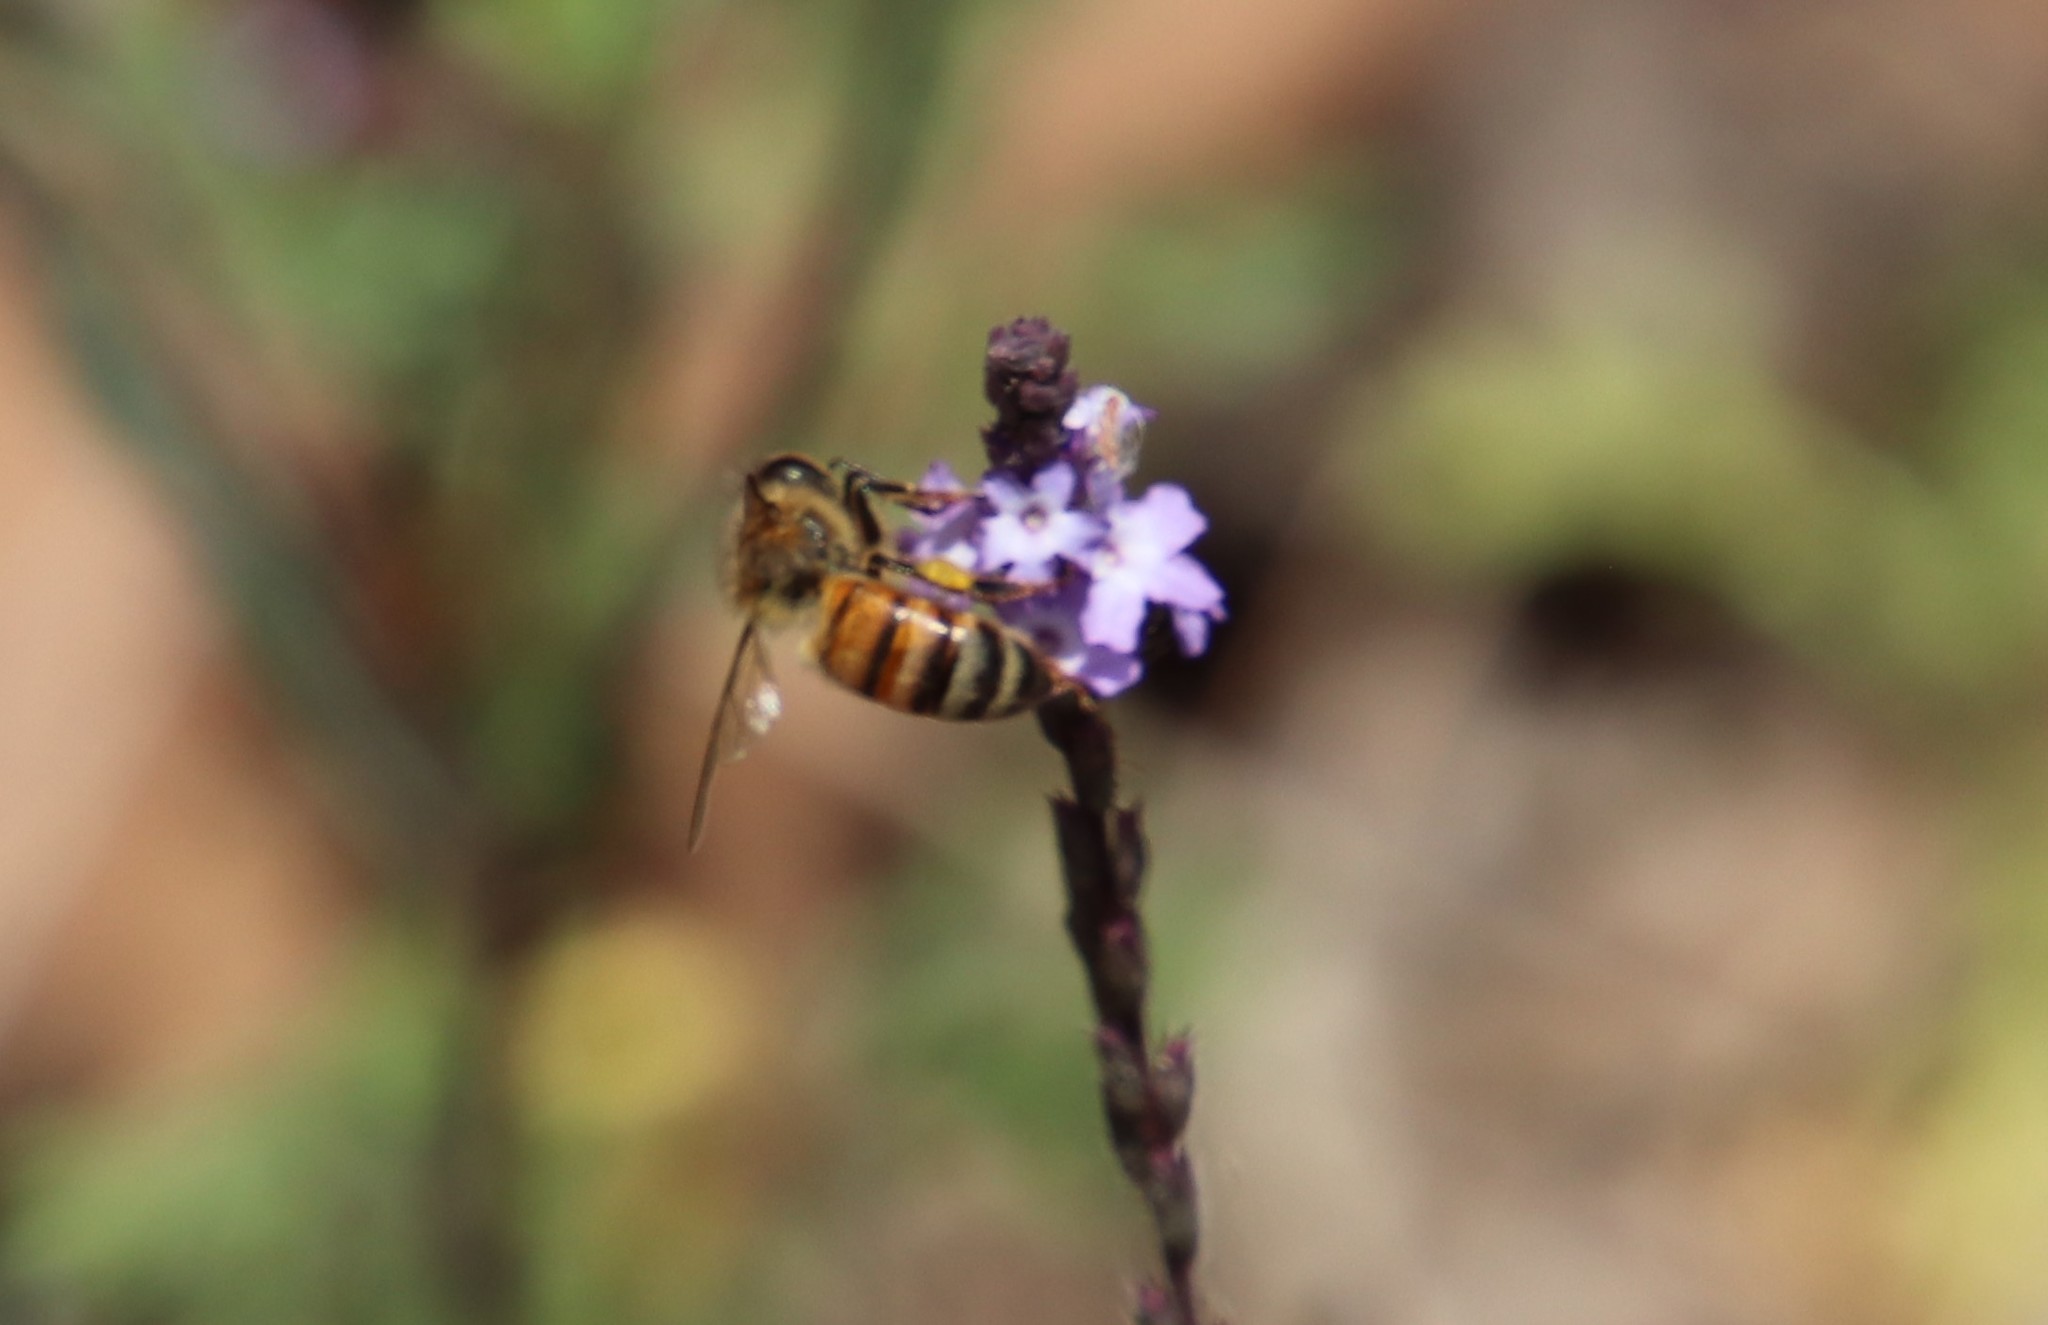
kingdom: Animalia
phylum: Arthropoda
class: Insecta
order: Hymenoptera
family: Apidae
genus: Apis
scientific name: Apis mellifera
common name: Honey bee
